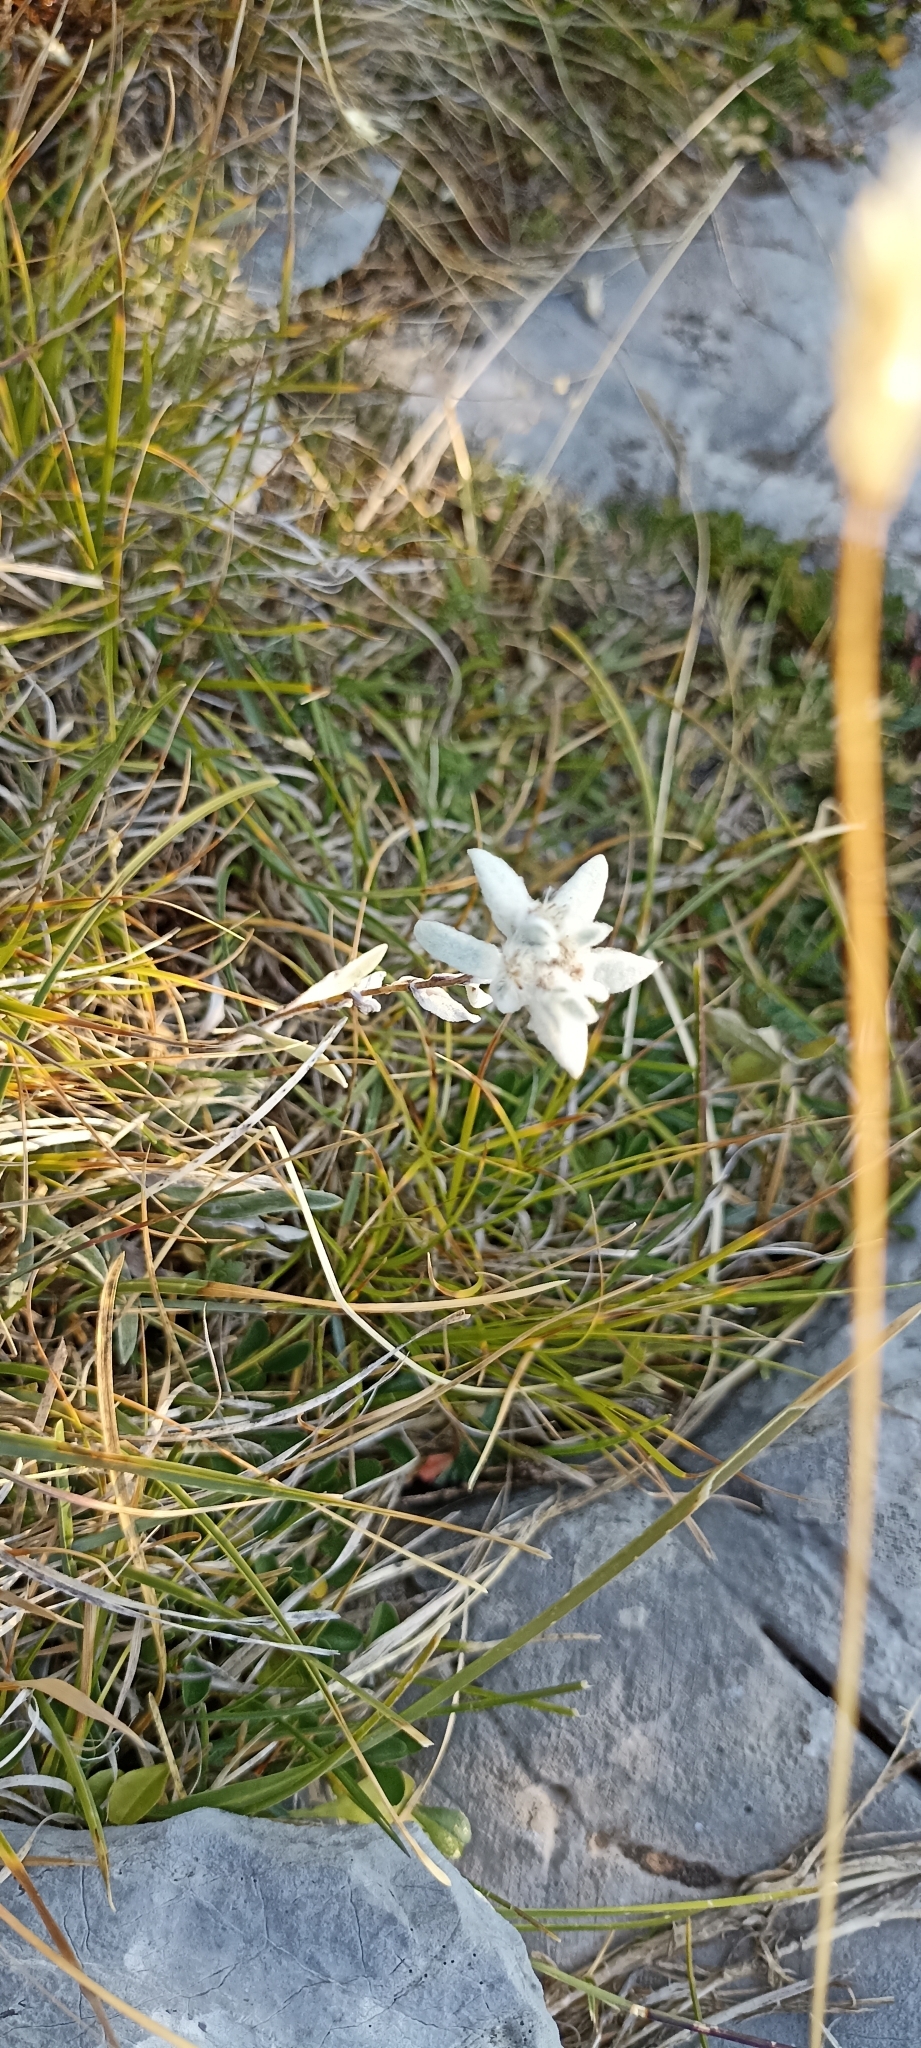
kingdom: Plantae
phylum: Tracheophyta
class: Magnoliopsida
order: Asterales
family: Asteraceae
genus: Leontopodium
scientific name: Leontopodium nivale
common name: Edelweiss
